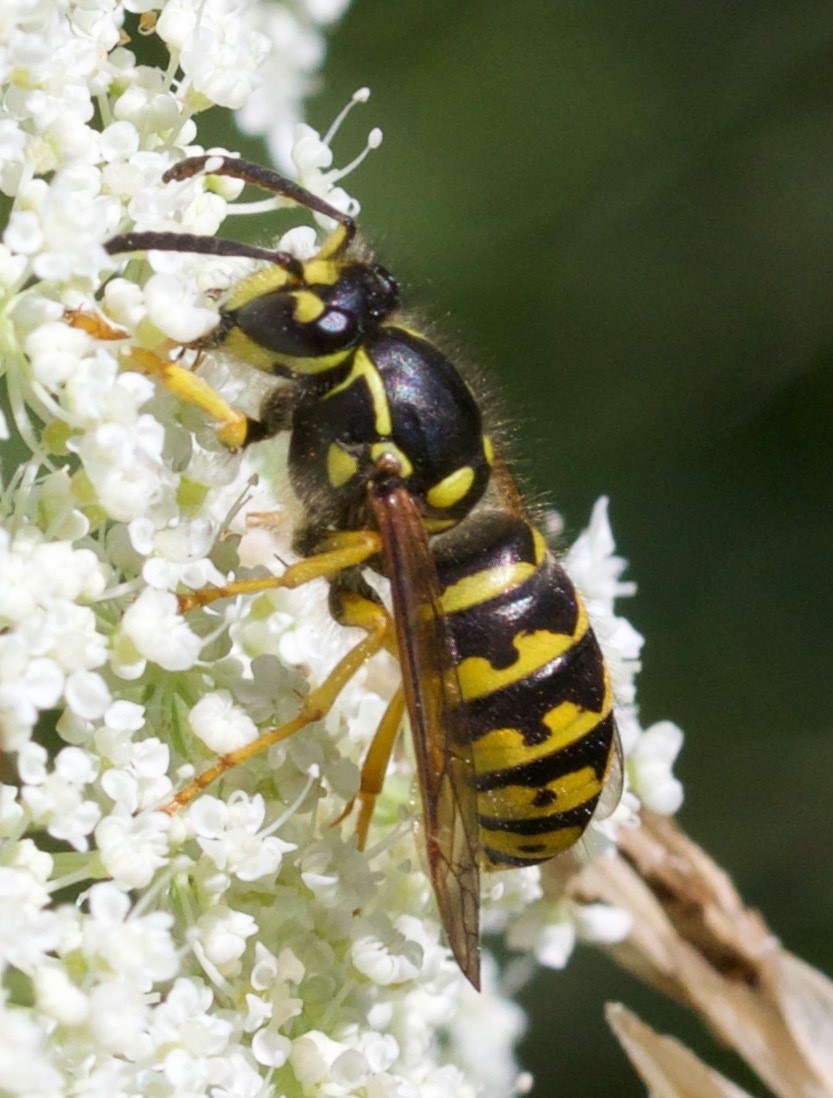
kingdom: Animalia
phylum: Arthropoda
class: Insecta
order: Hymenoptera
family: Vespidae
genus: Dolichovespula
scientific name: Dolichovespula arenaria
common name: Aerial yellowjacket
